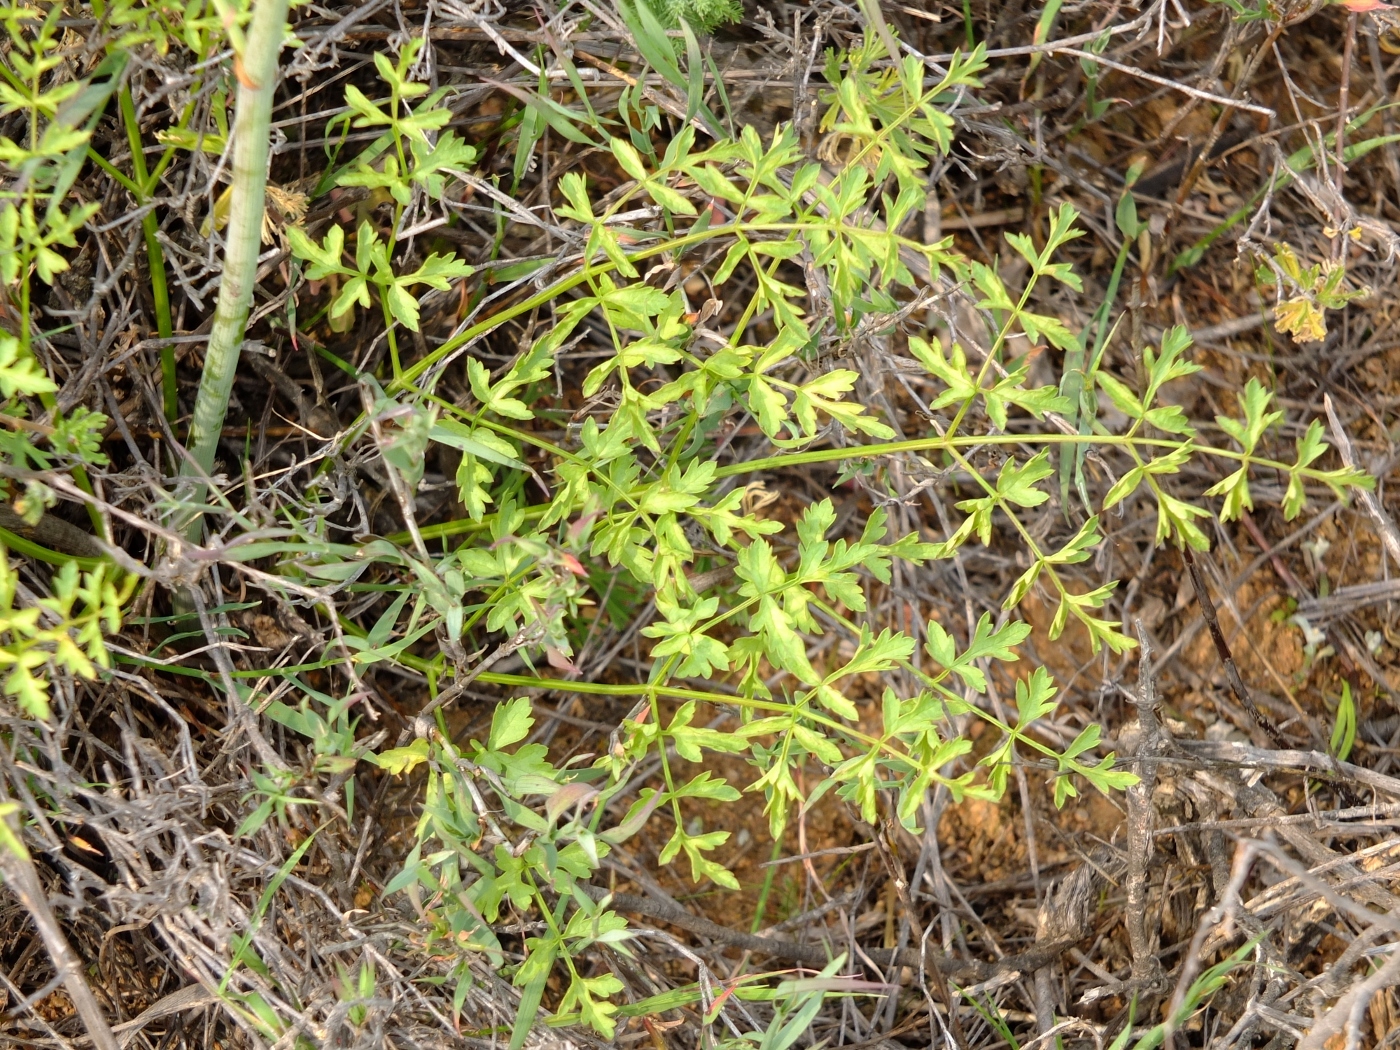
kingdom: Plantae
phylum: Tracheophyta
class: Magnoliopsida
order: Apiales
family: Apiaceae
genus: Annesorhiza
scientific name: Annesorhiza altiscapa
